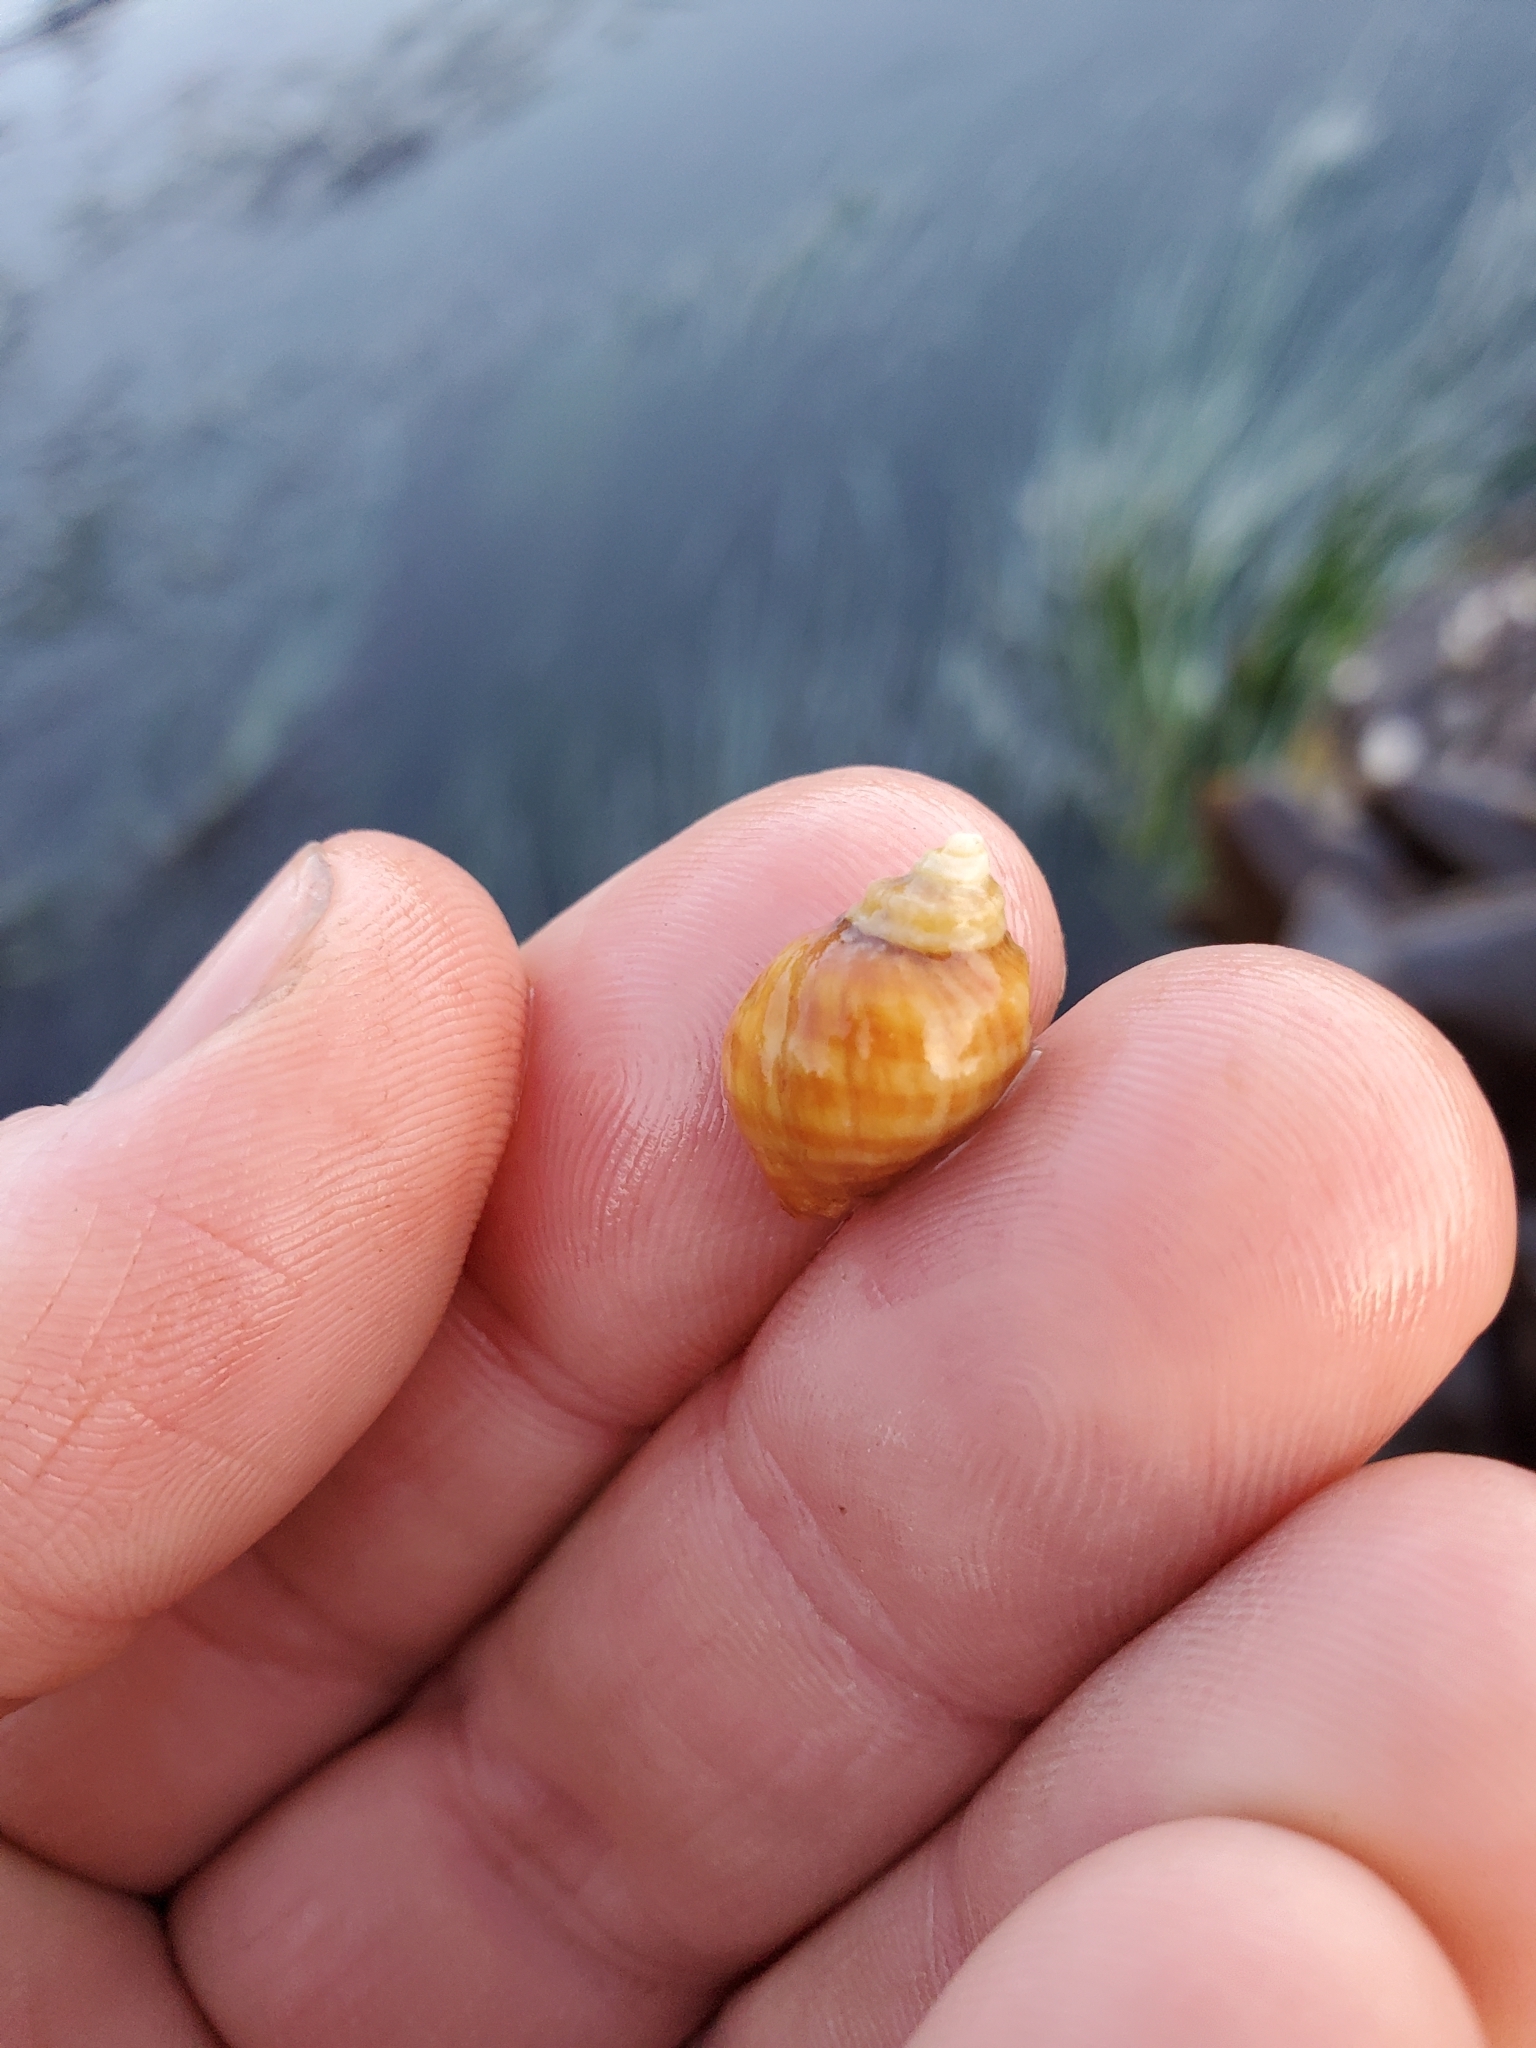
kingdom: Animalia
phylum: Mollusca
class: Gastropoda
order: Neogastropoda
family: Muricidae
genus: Nucella
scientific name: Nucella lamellosa
